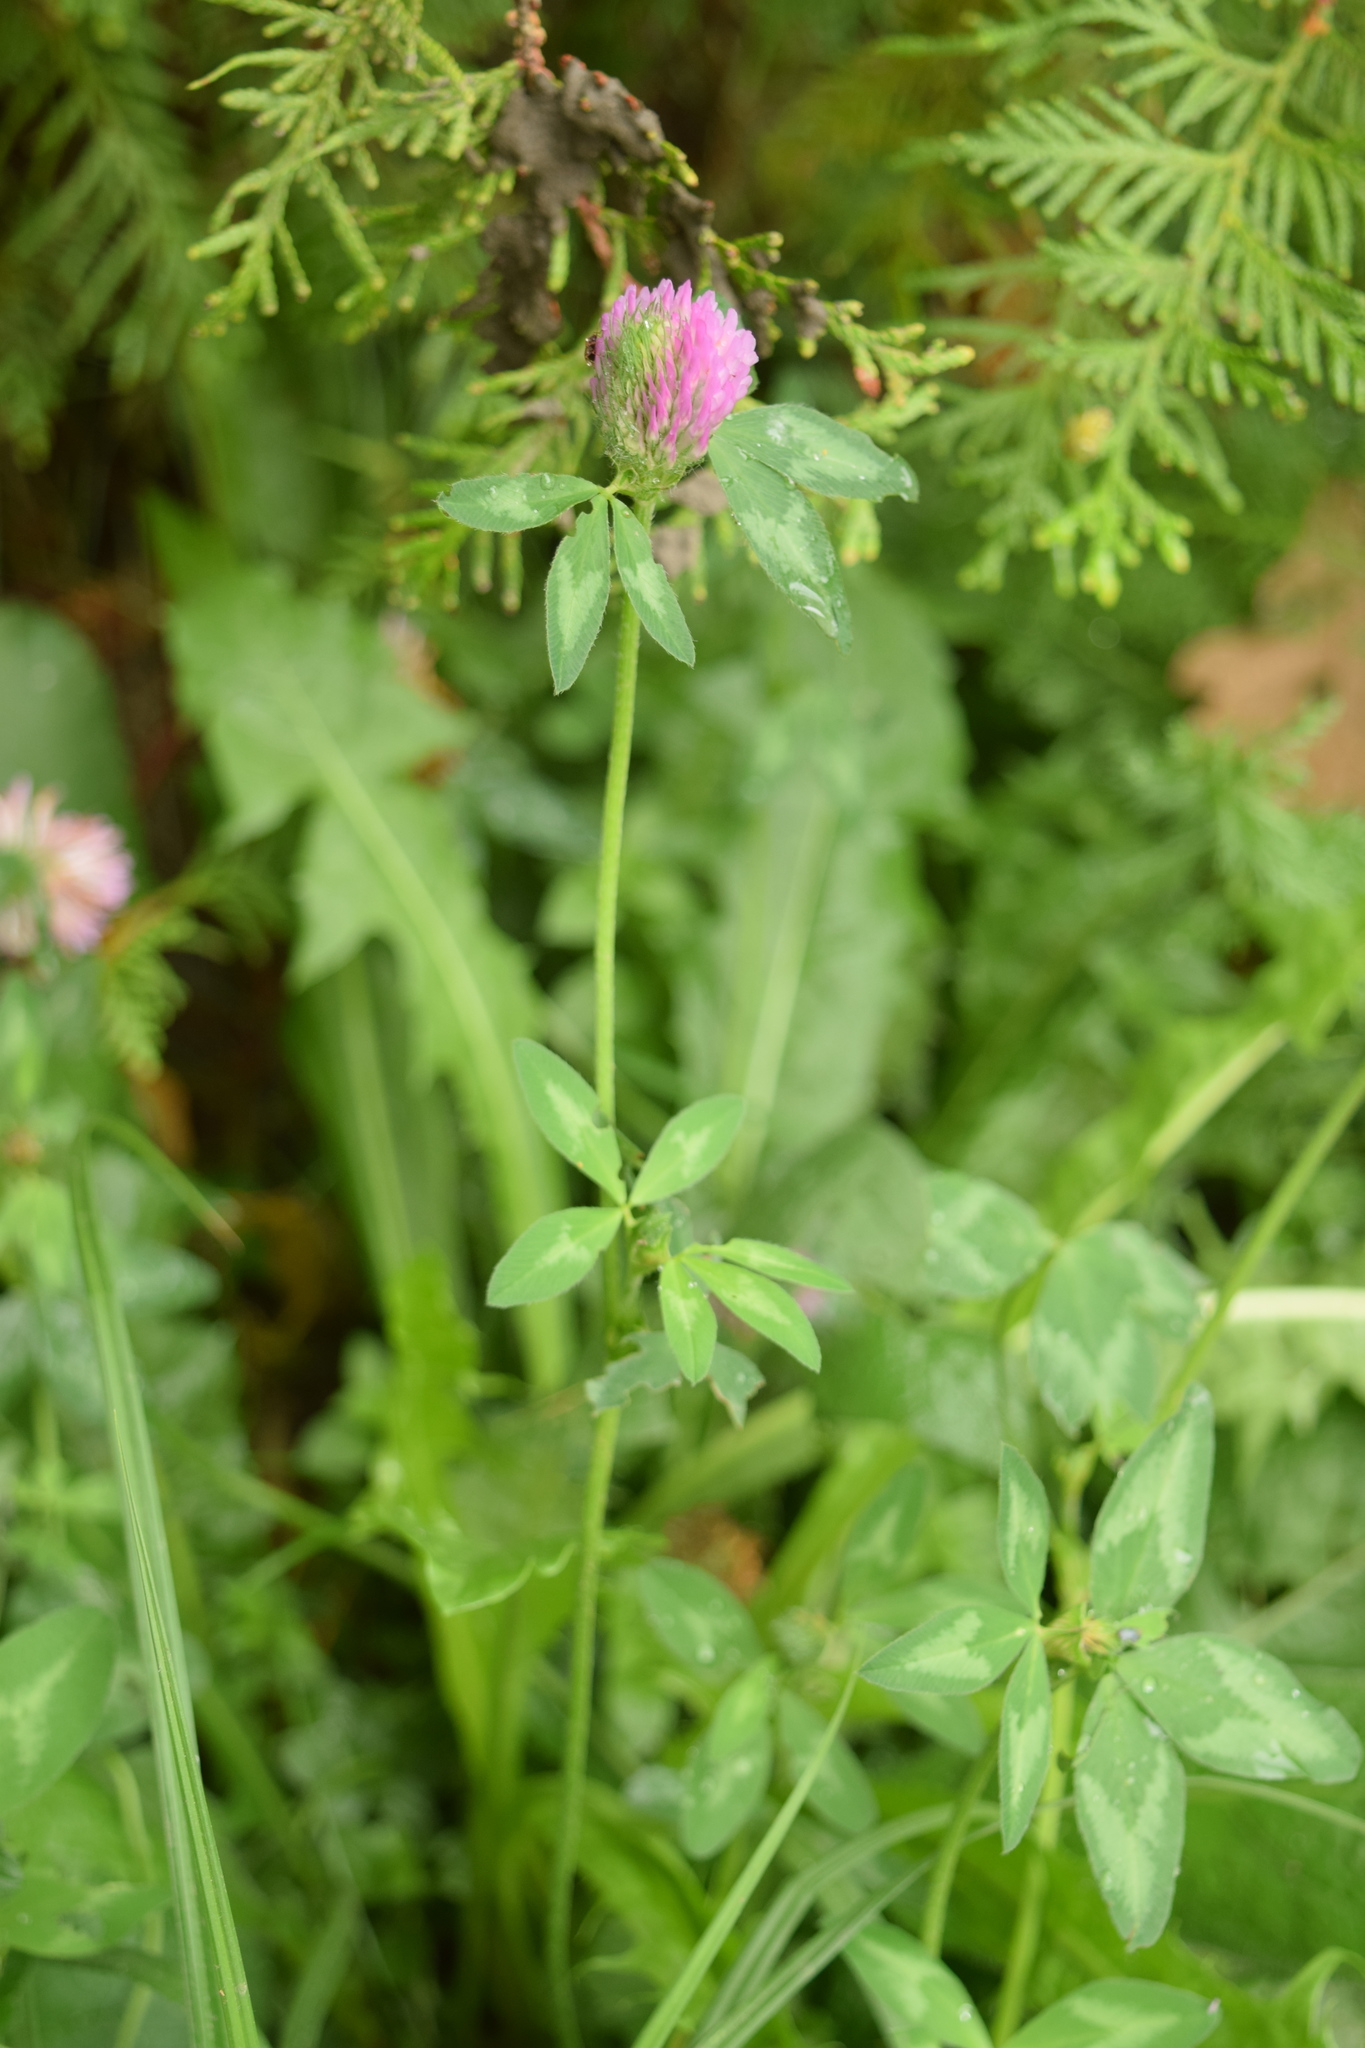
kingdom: Plantae
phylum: Tracheophyta
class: Magnoliopsida
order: Fabales
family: Fabaceae
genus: Trifolium
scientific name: Trifolium pratense
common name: Red clover
